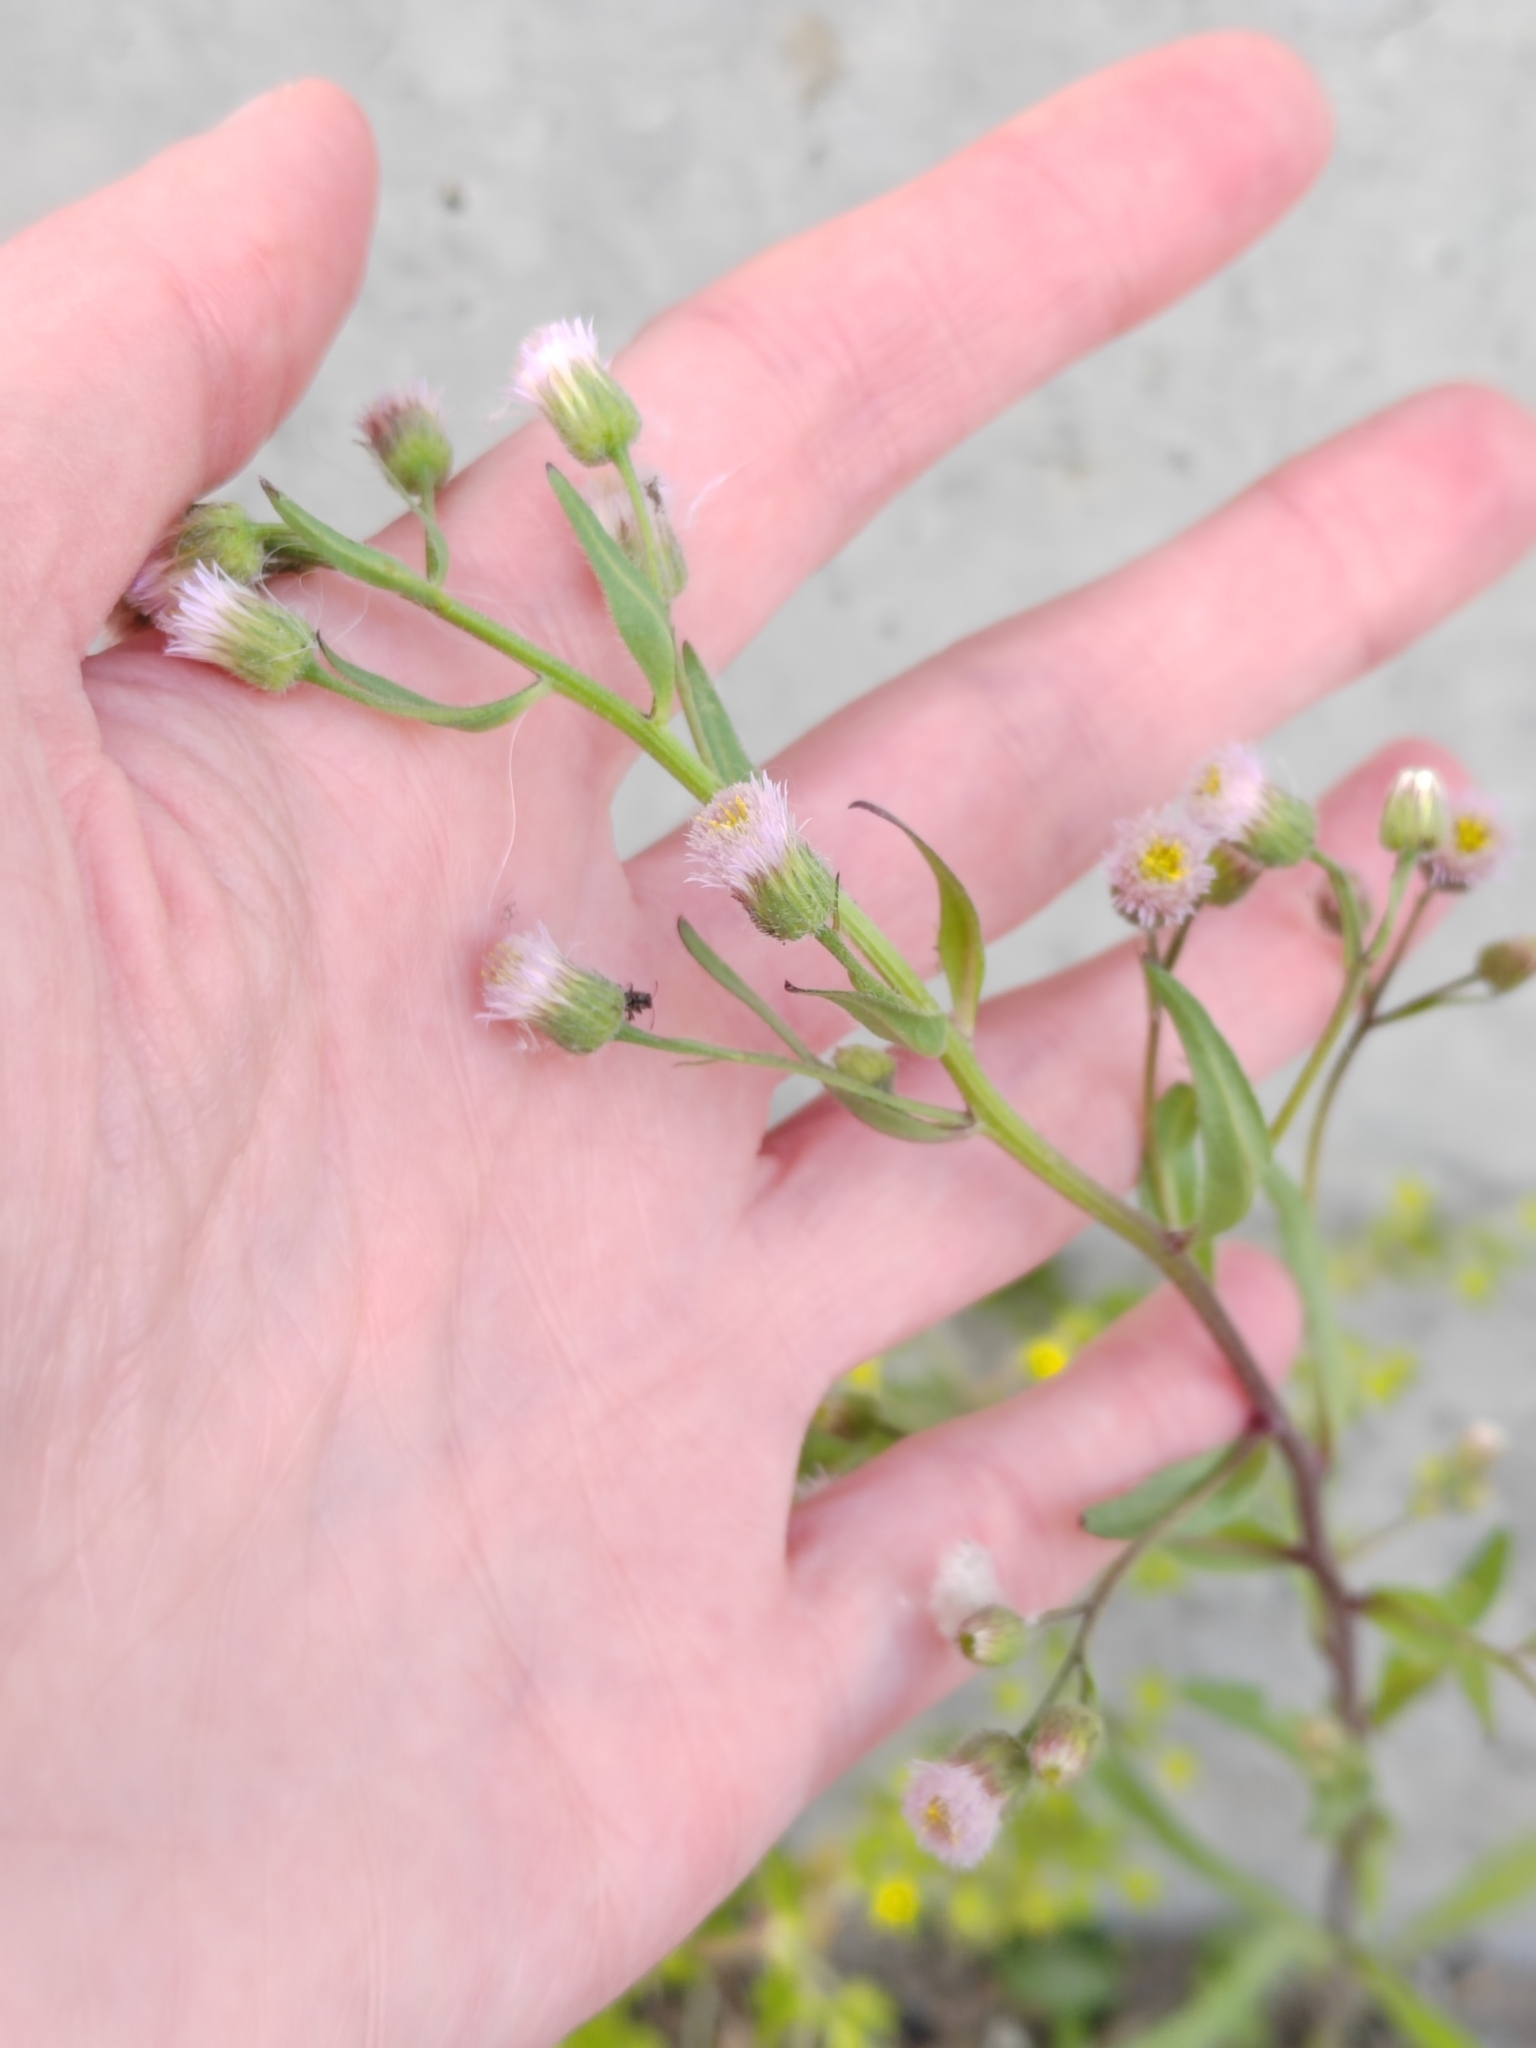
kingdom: Plantae
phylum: Tracheophyta
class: Magnoliopsida
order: Asterales
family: Asteraceae
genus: Erigeron
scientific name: Erigeron acris
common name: Blue fleabane
